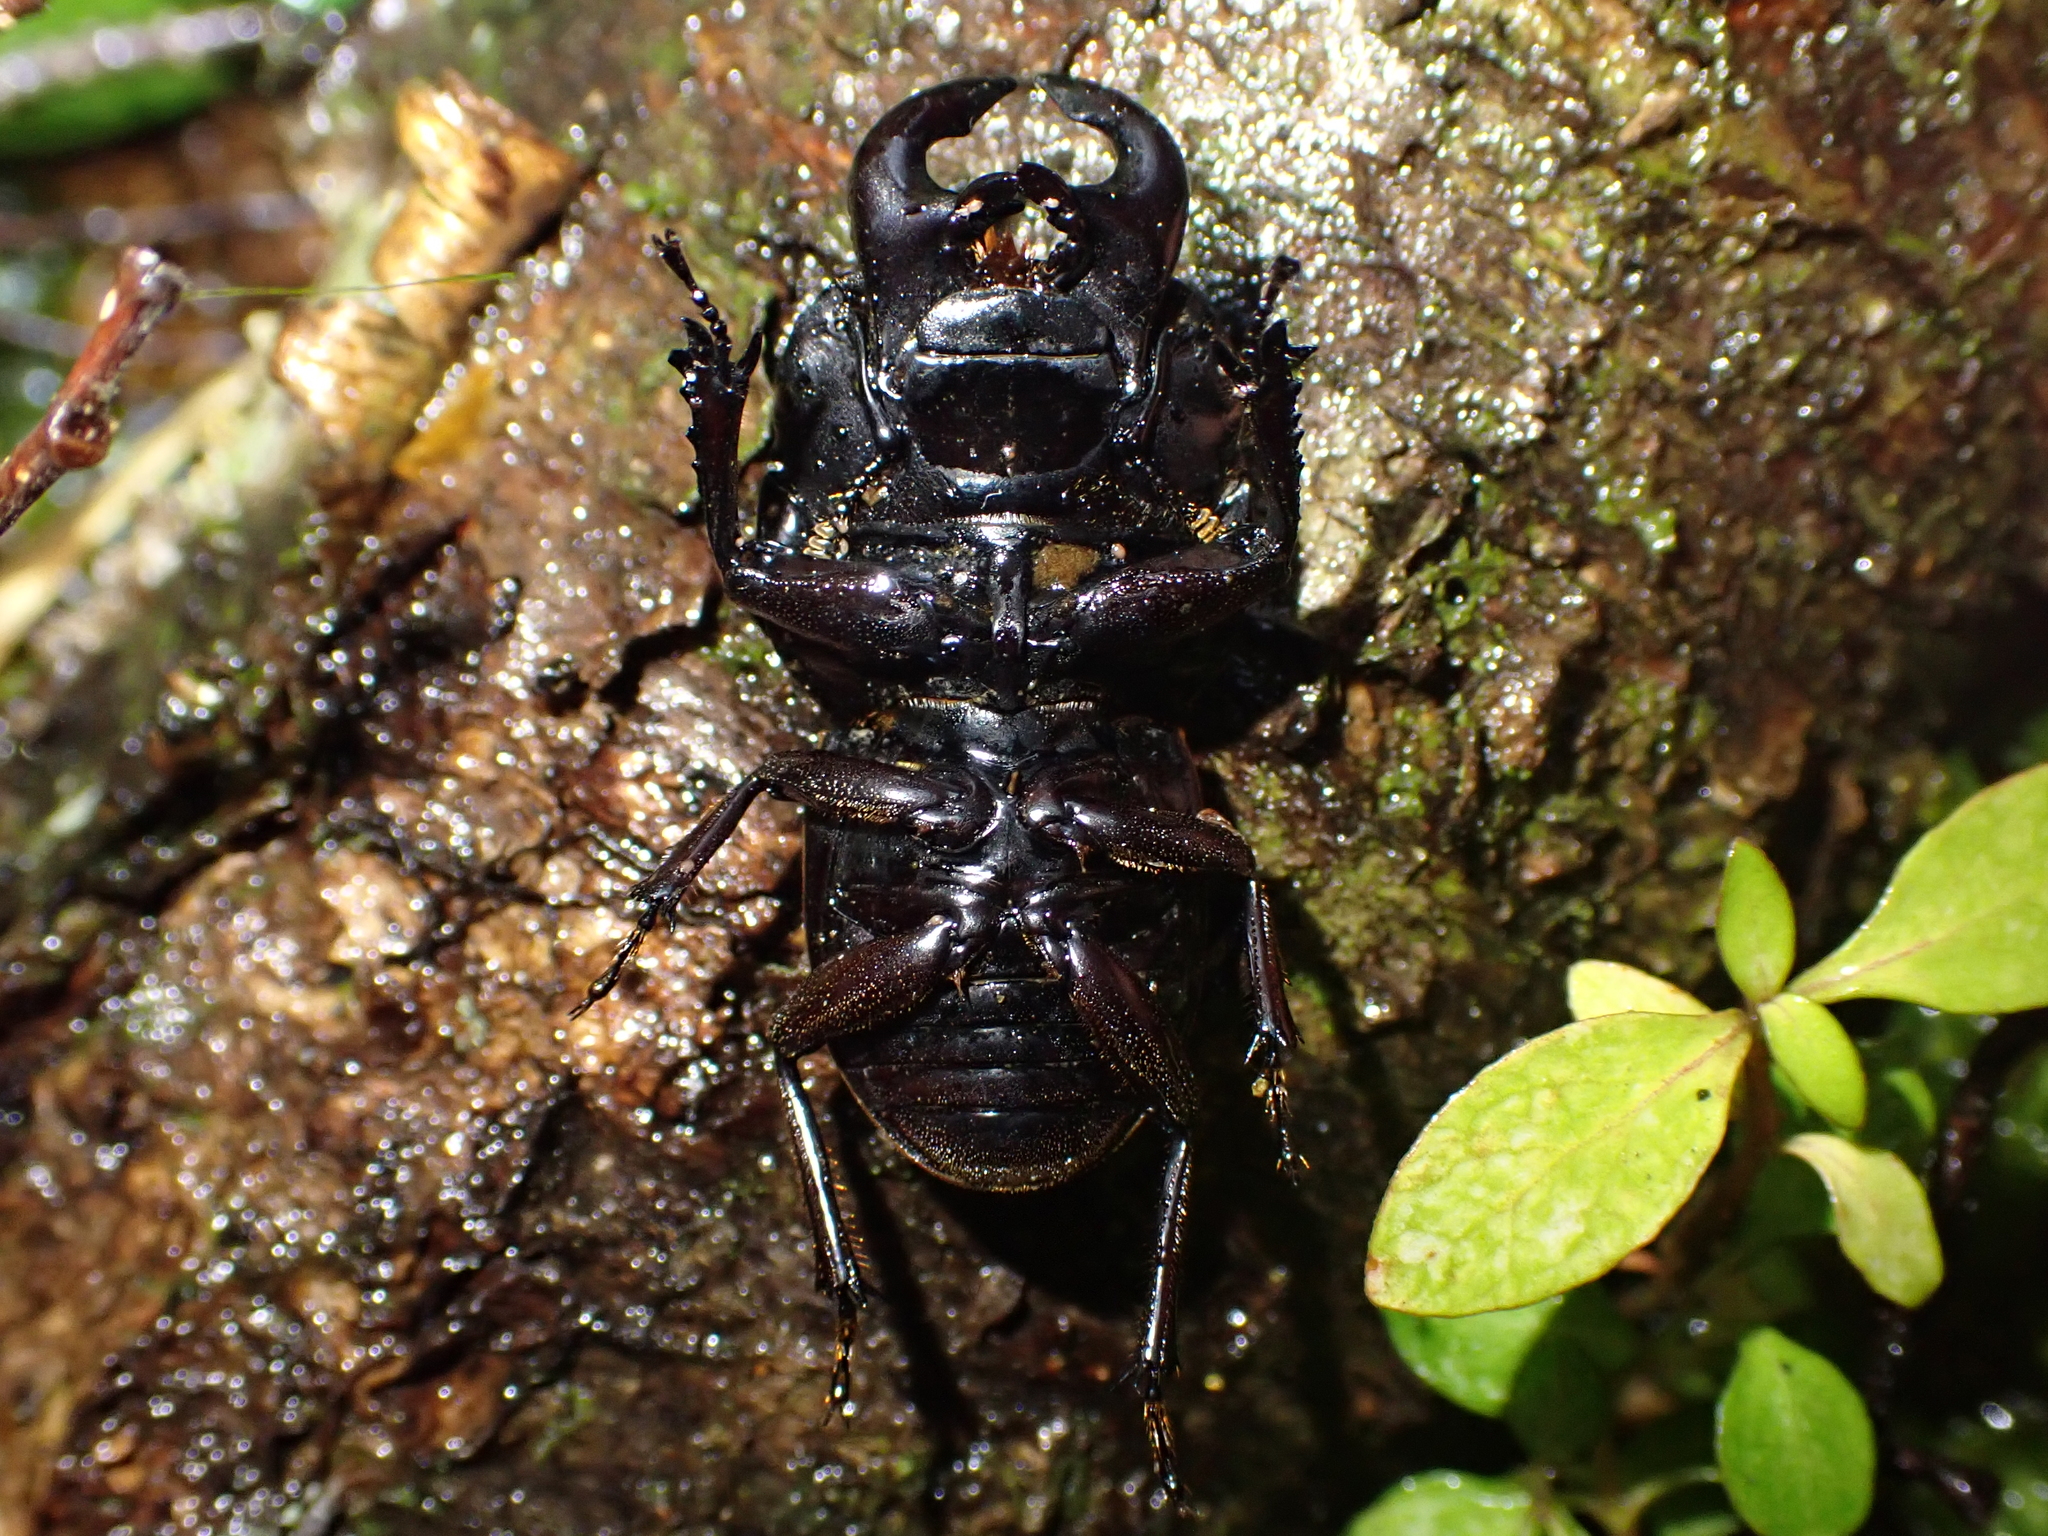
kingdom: Animalia
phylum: Arthropoda
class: Insecta
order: Coleoptera
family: Lucanidae
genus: Geodorcus
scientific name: Geodorcus helmsi
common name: Helm's stag beetle
